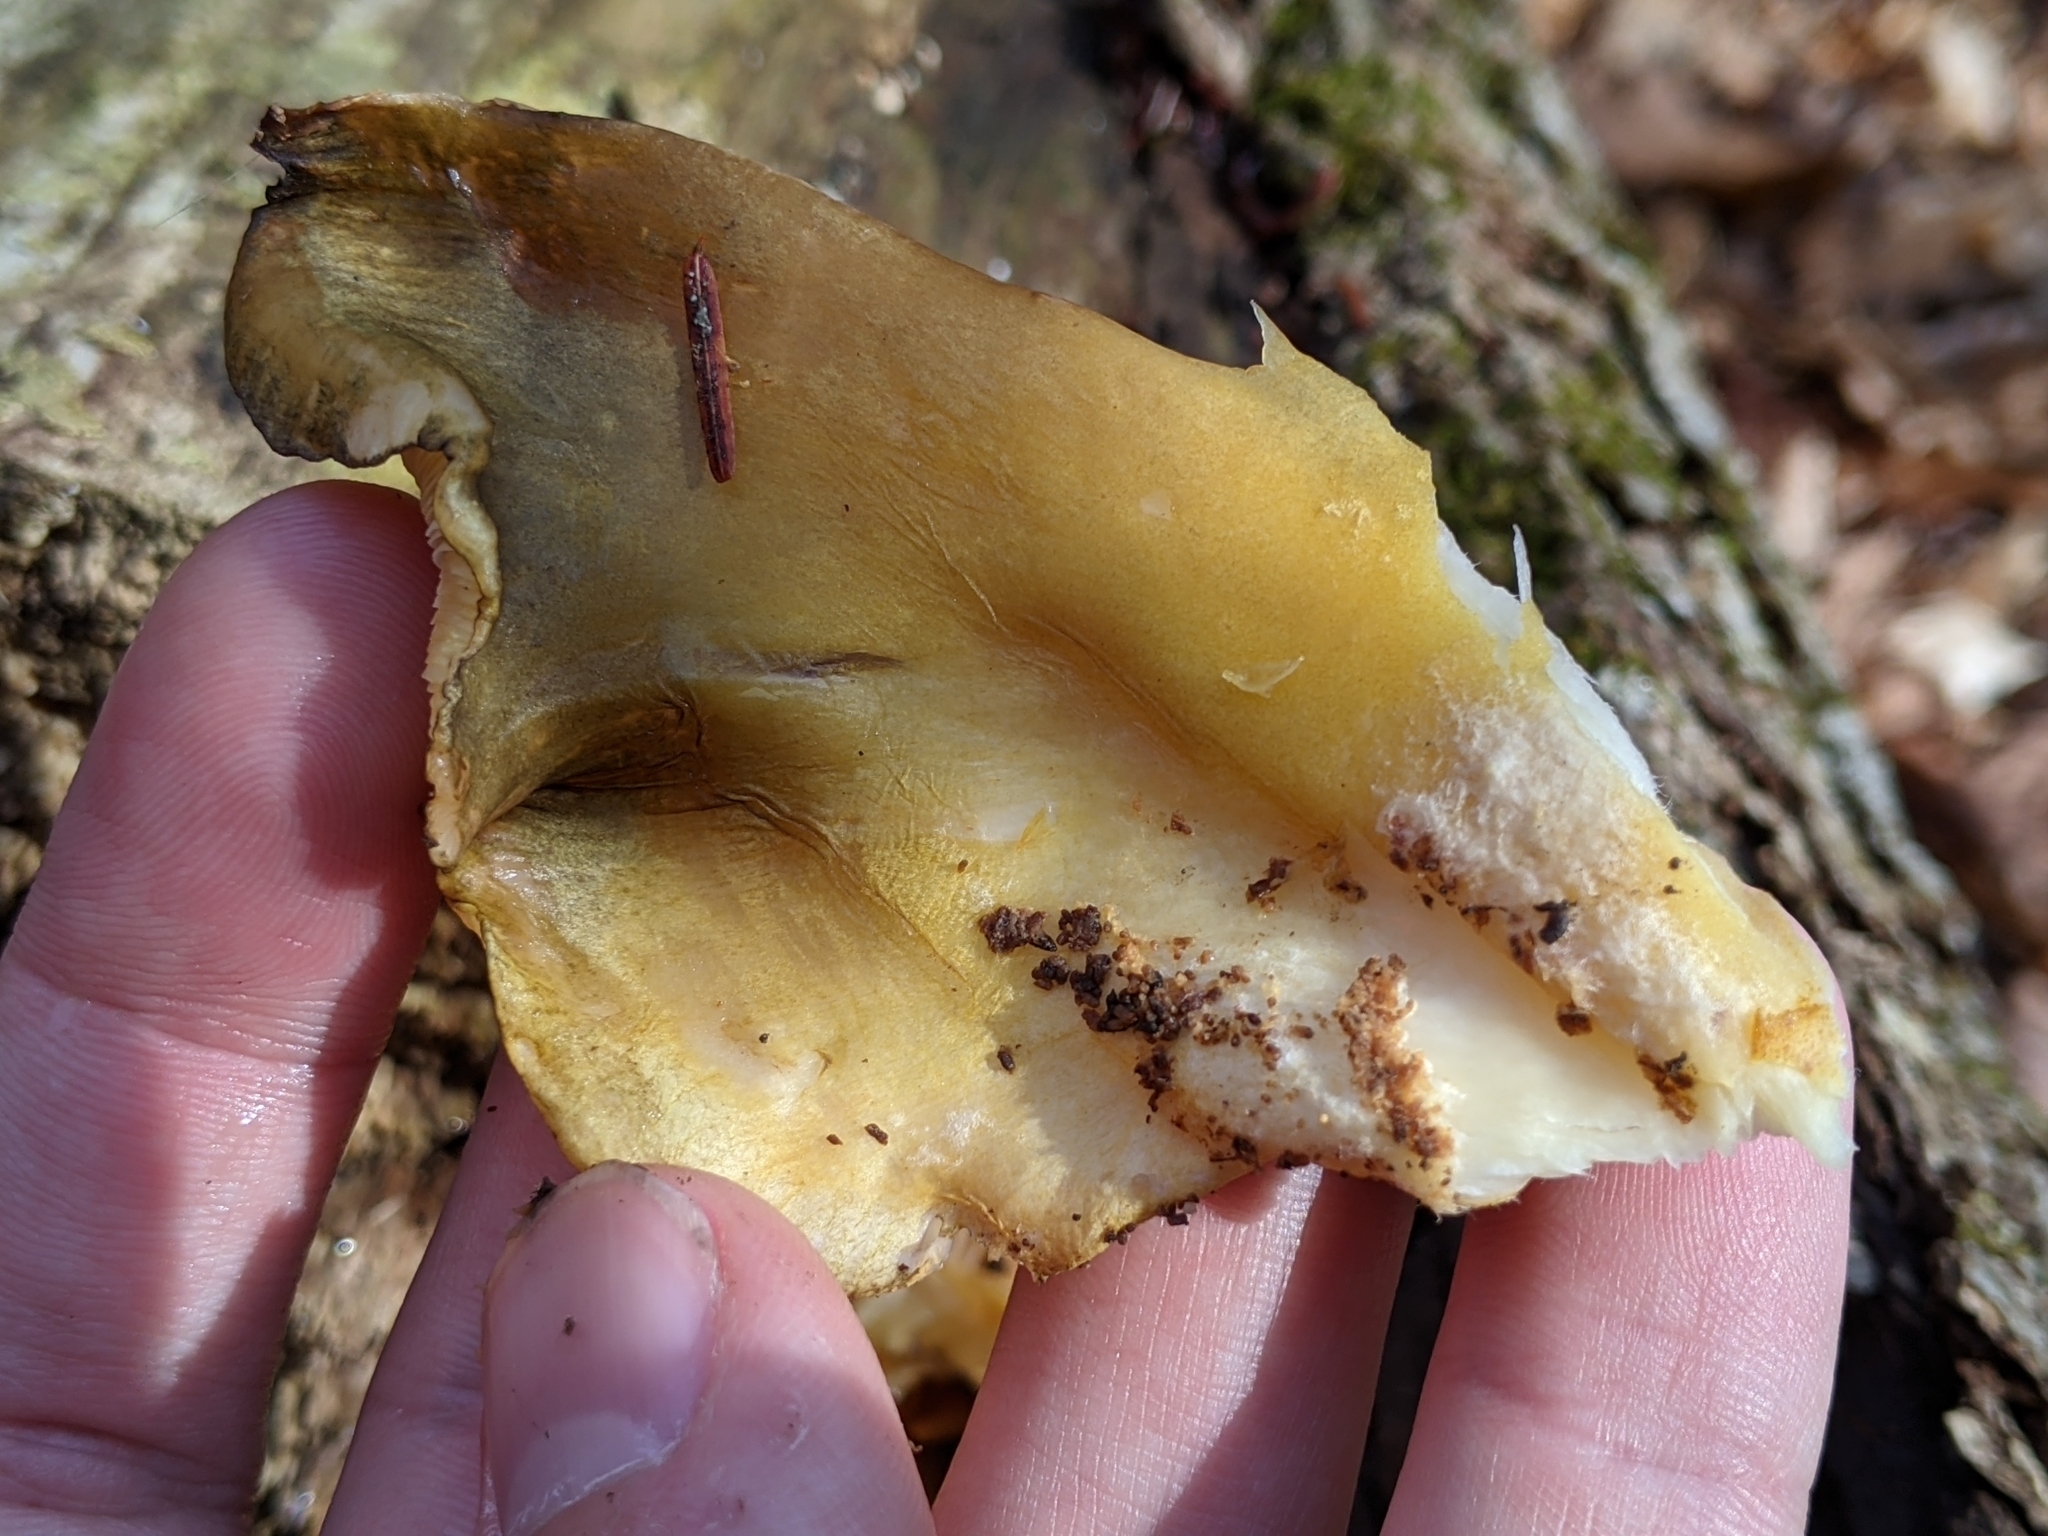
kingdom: Fungi
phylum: Basidiomycota
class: Agaricomycetes
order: Agaricales
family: Sarcomyxaceae
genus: Sarcomyxa
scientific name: Sarcomyxa serotina
